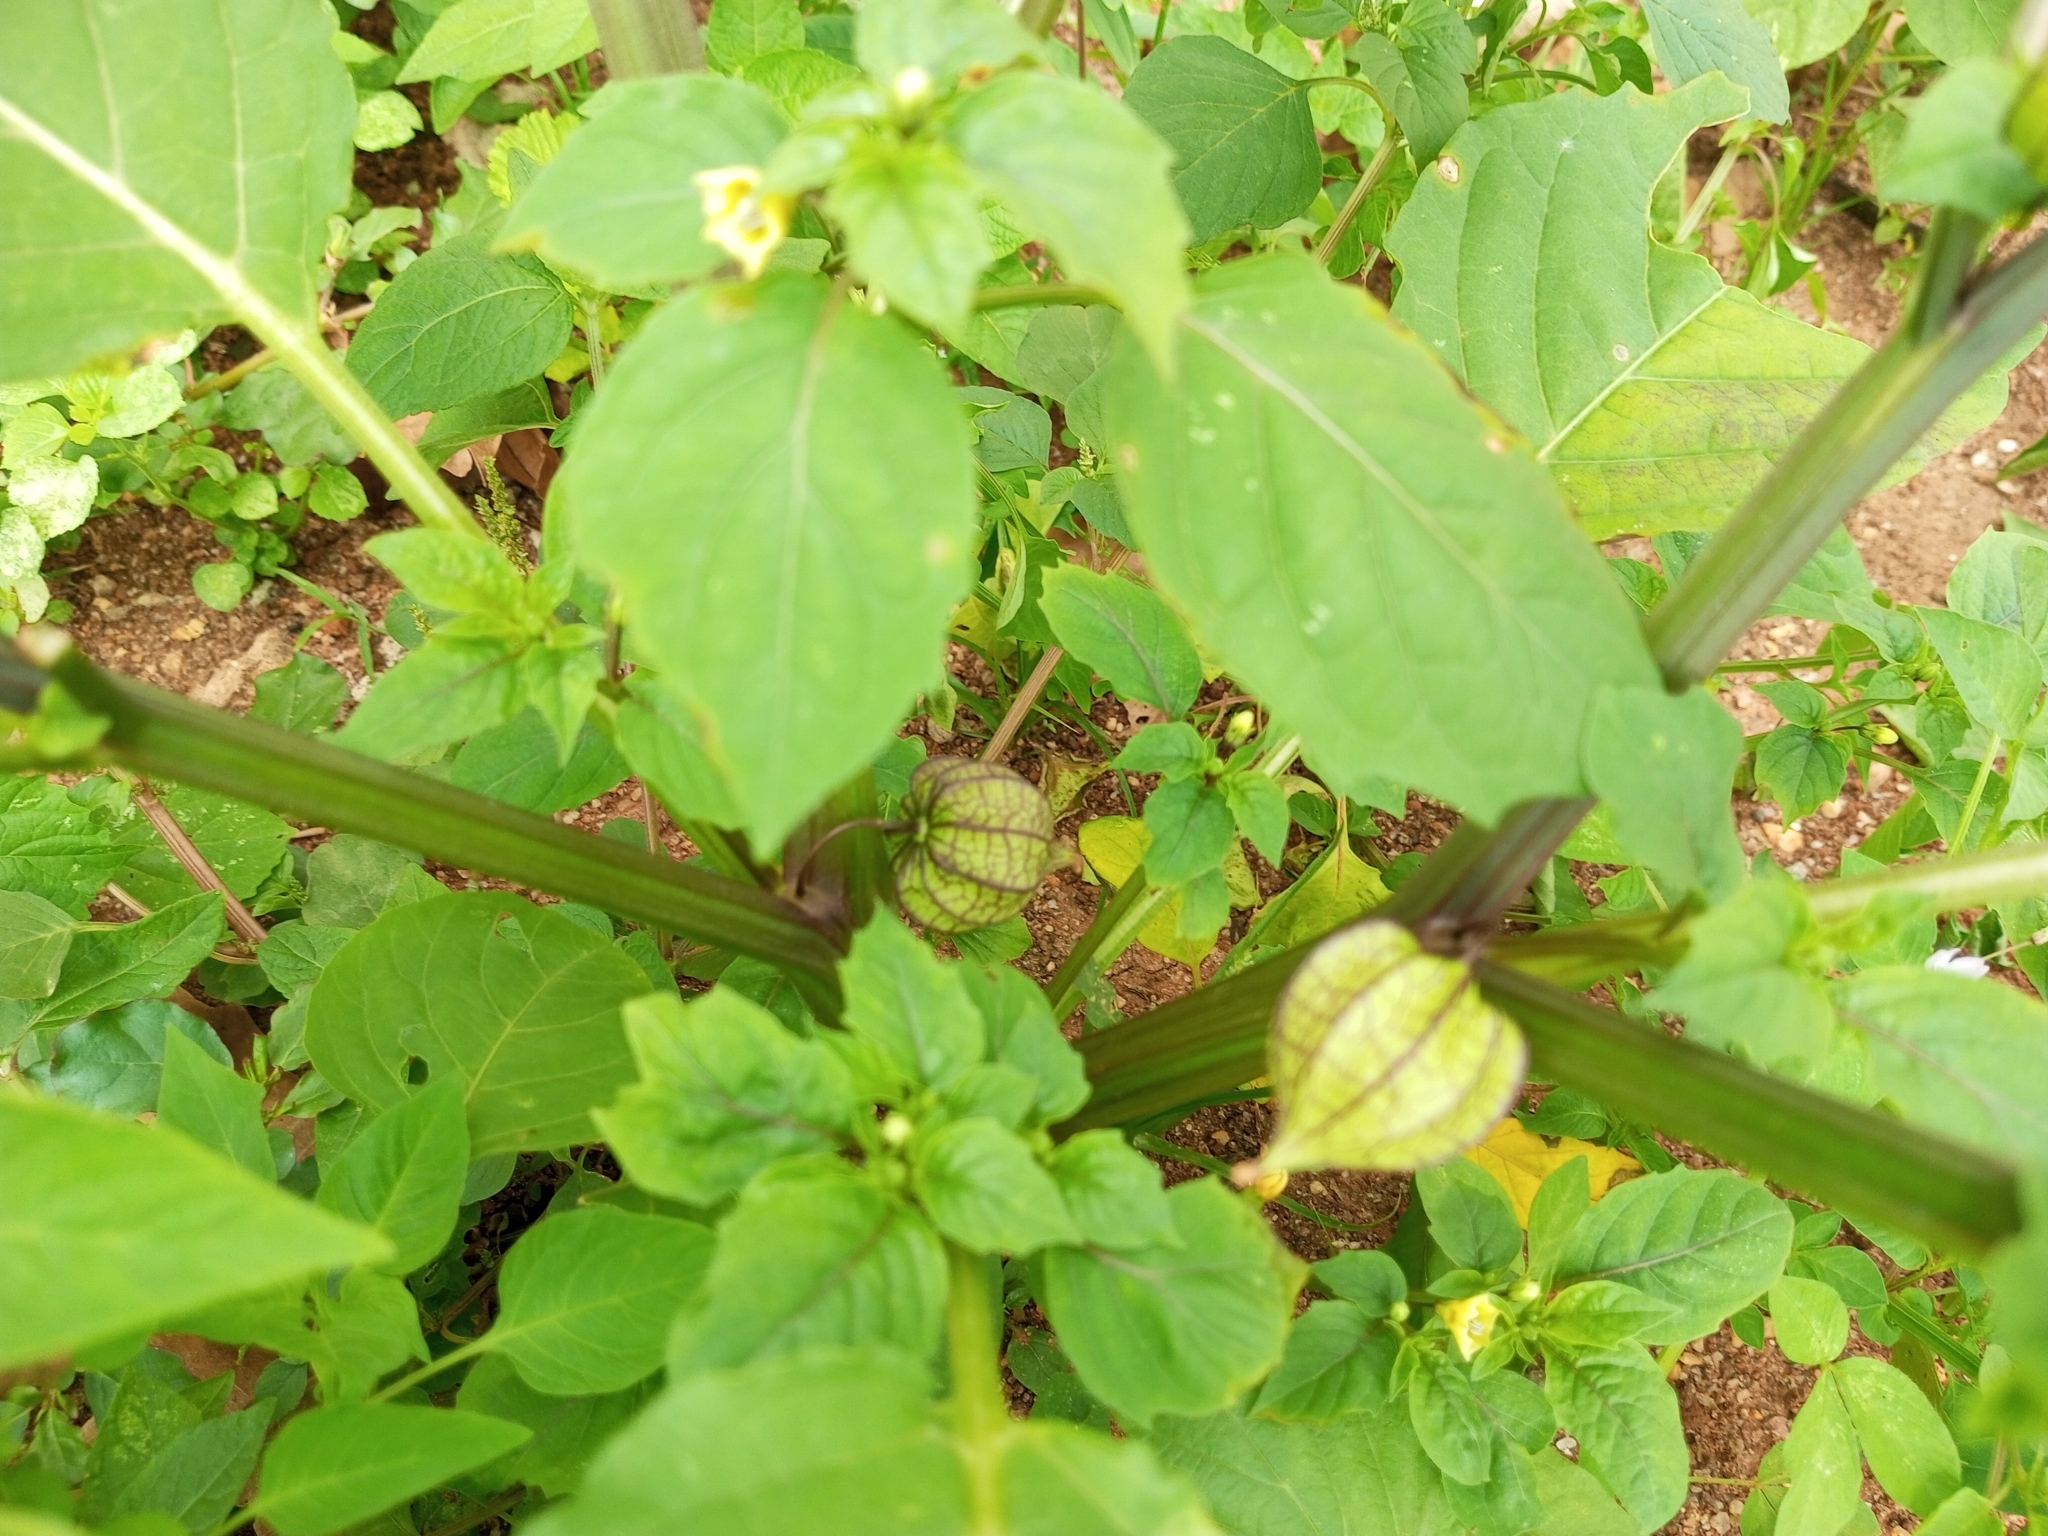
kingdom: Plantae
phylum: Tracheophyta
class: Magnoliopsida
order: Solanales
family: Solanaceae
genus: Physalis
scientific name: Physalis angulata
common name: Angular winter-cherry
